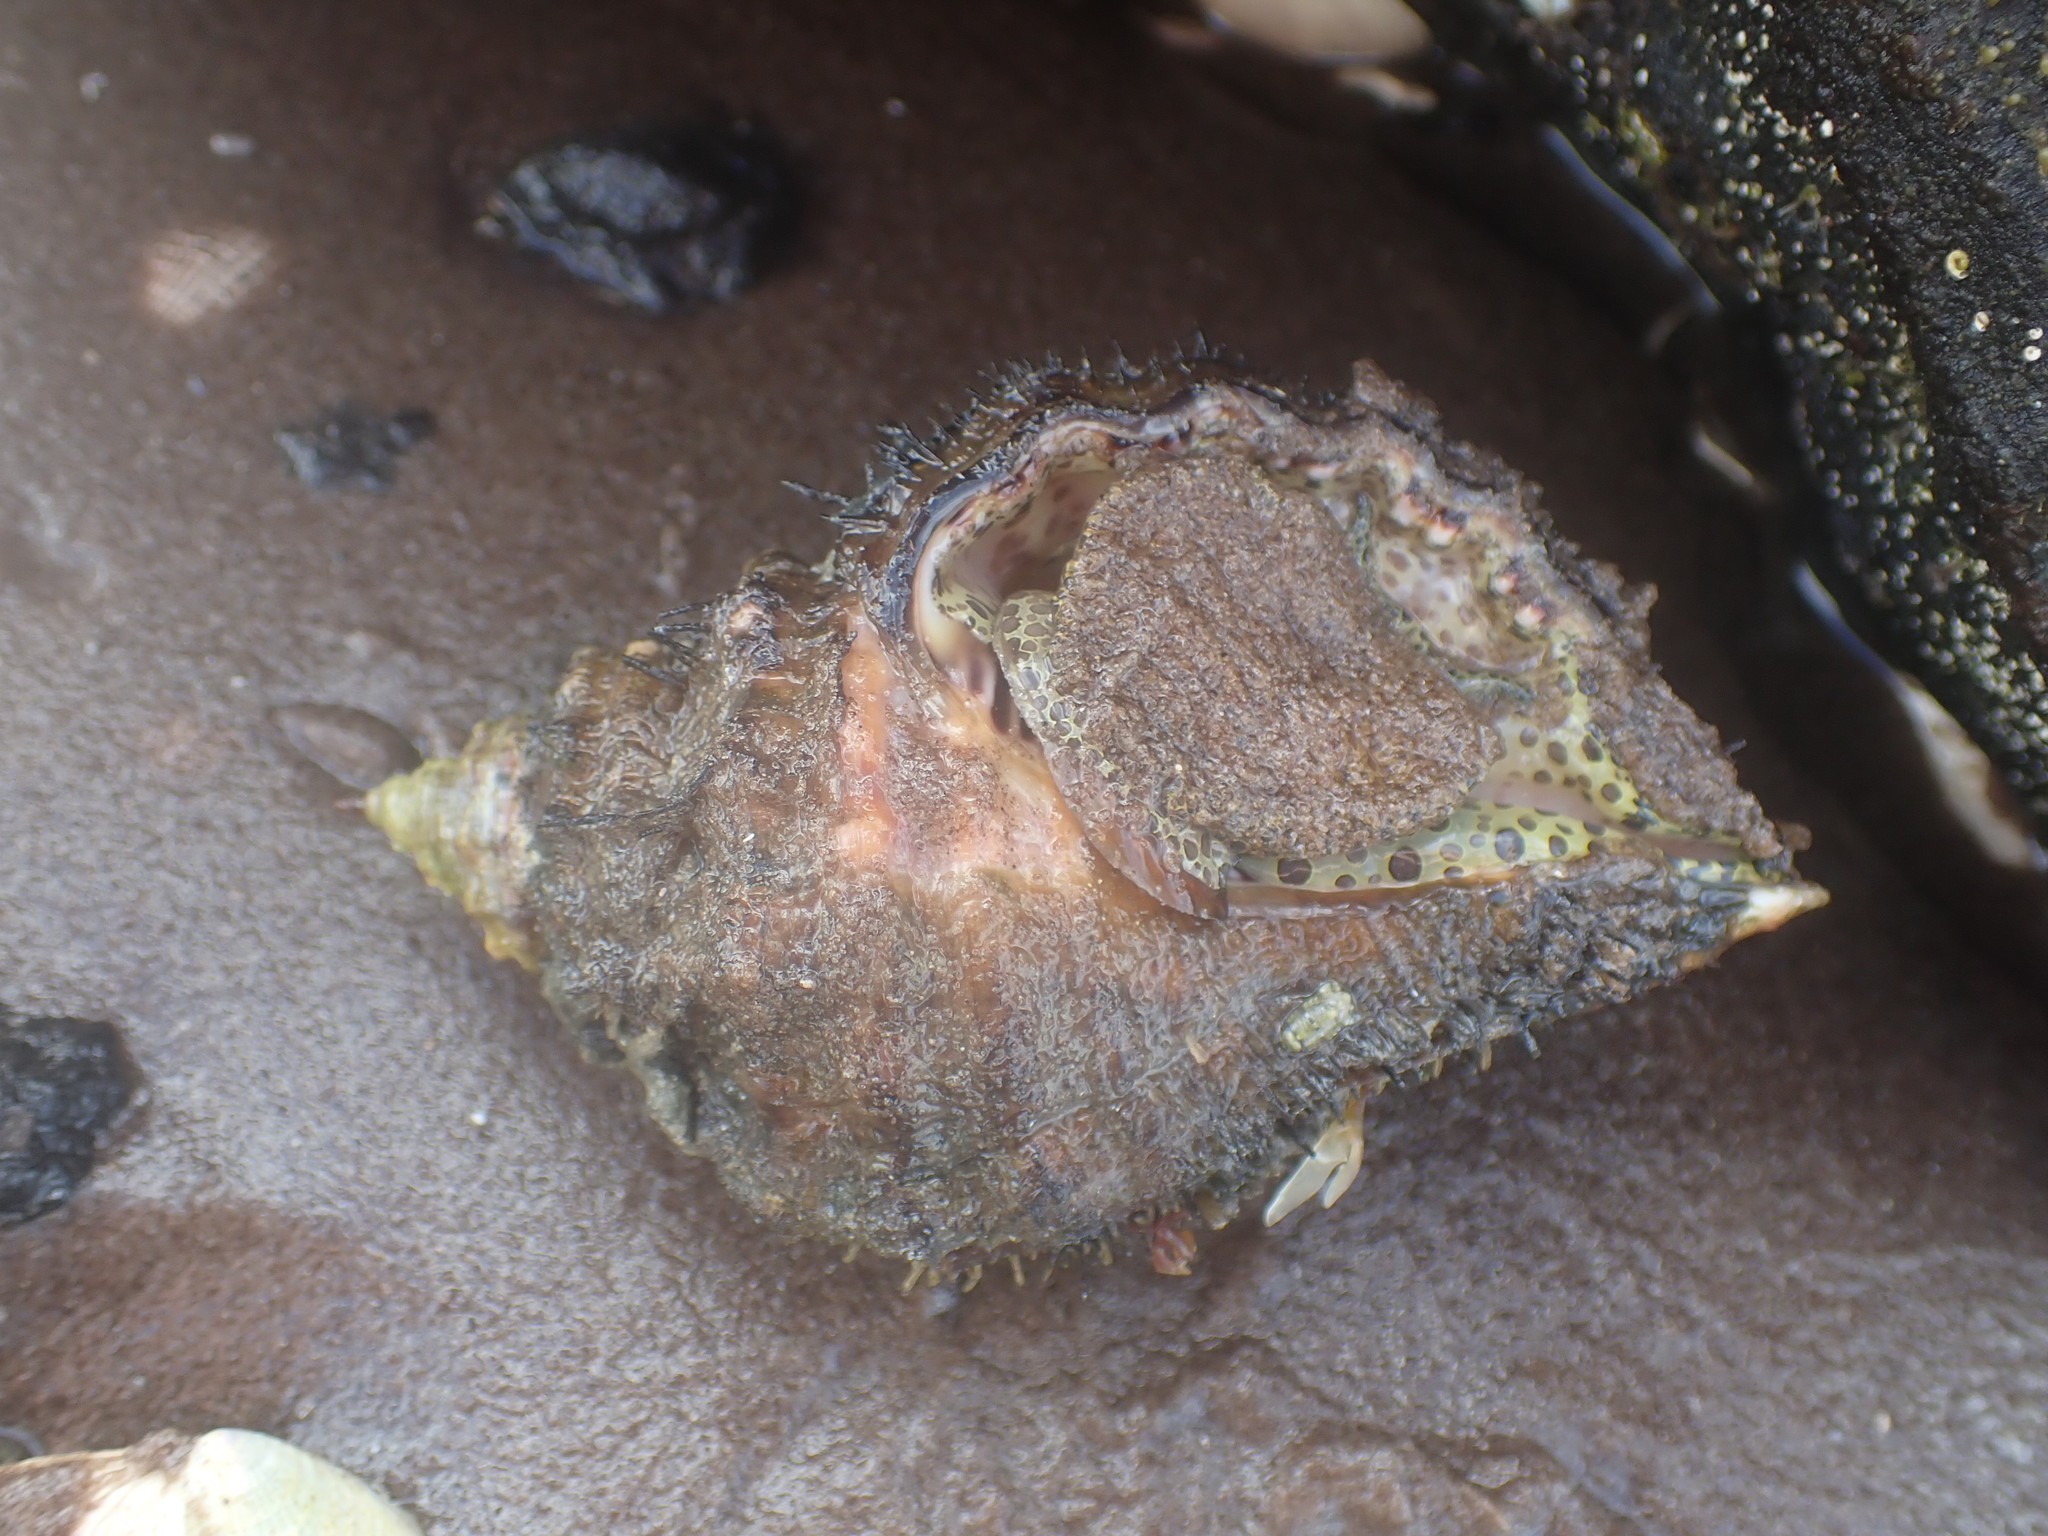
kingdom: Animalia
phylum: Mollusca
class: Gastropoda
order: Littorinimorpha
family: Cymatiidae
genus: Monoplex
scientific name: Monoplex parthenopeus
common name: Giant triton
